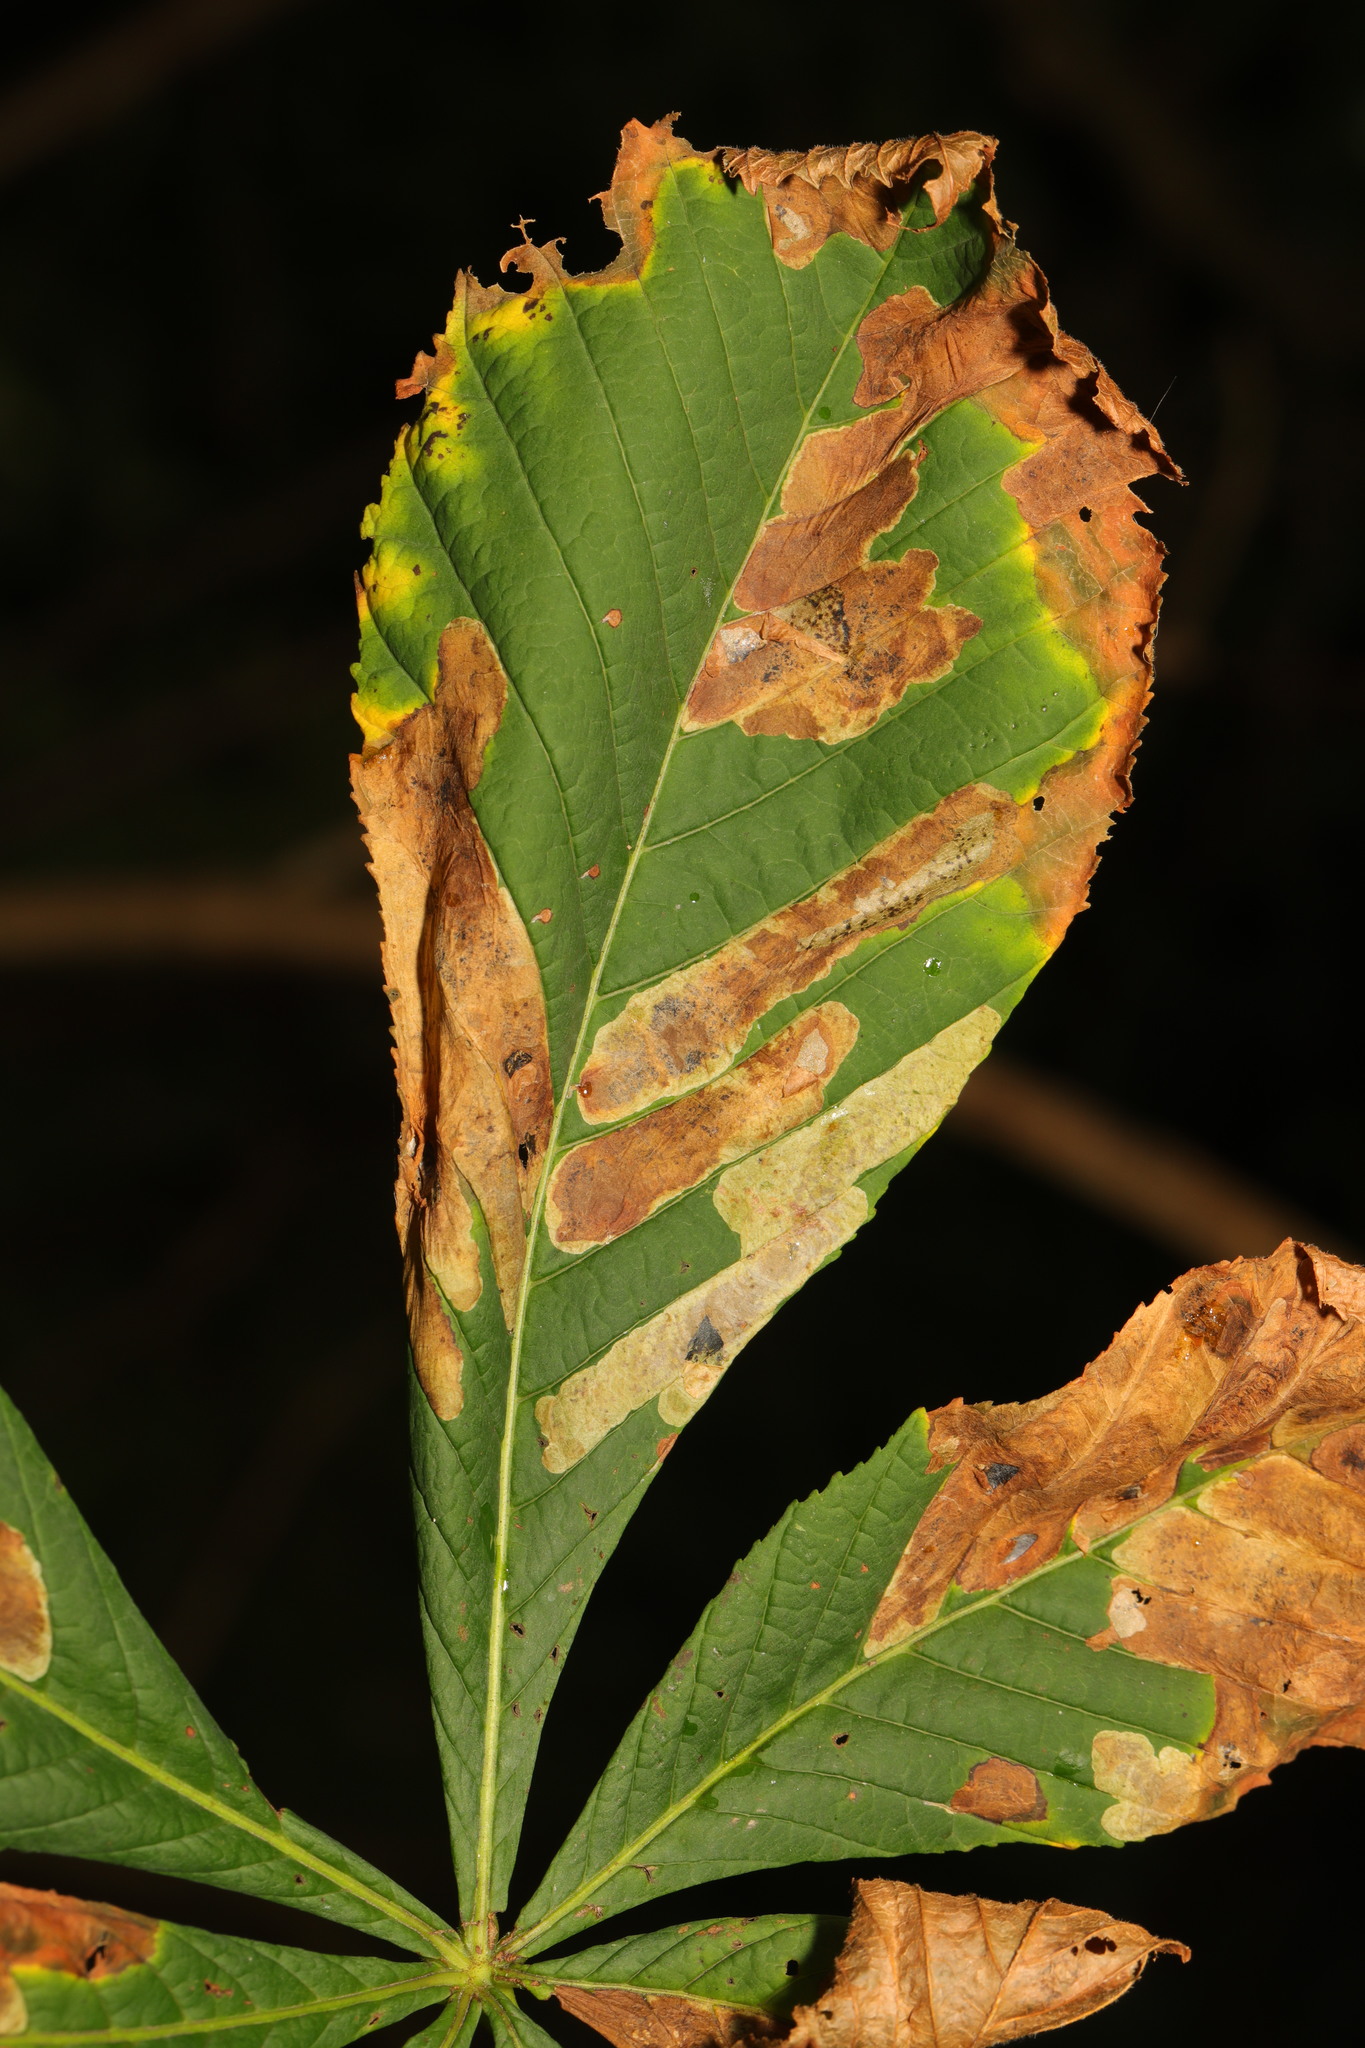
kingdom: Animalia
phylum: Arthropoda
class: Insecta
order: Lepidoptera
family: Gracillariidae
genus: Cameraria
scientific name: Cameraria ohridella
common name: Horse-chestnut leaf-miner
